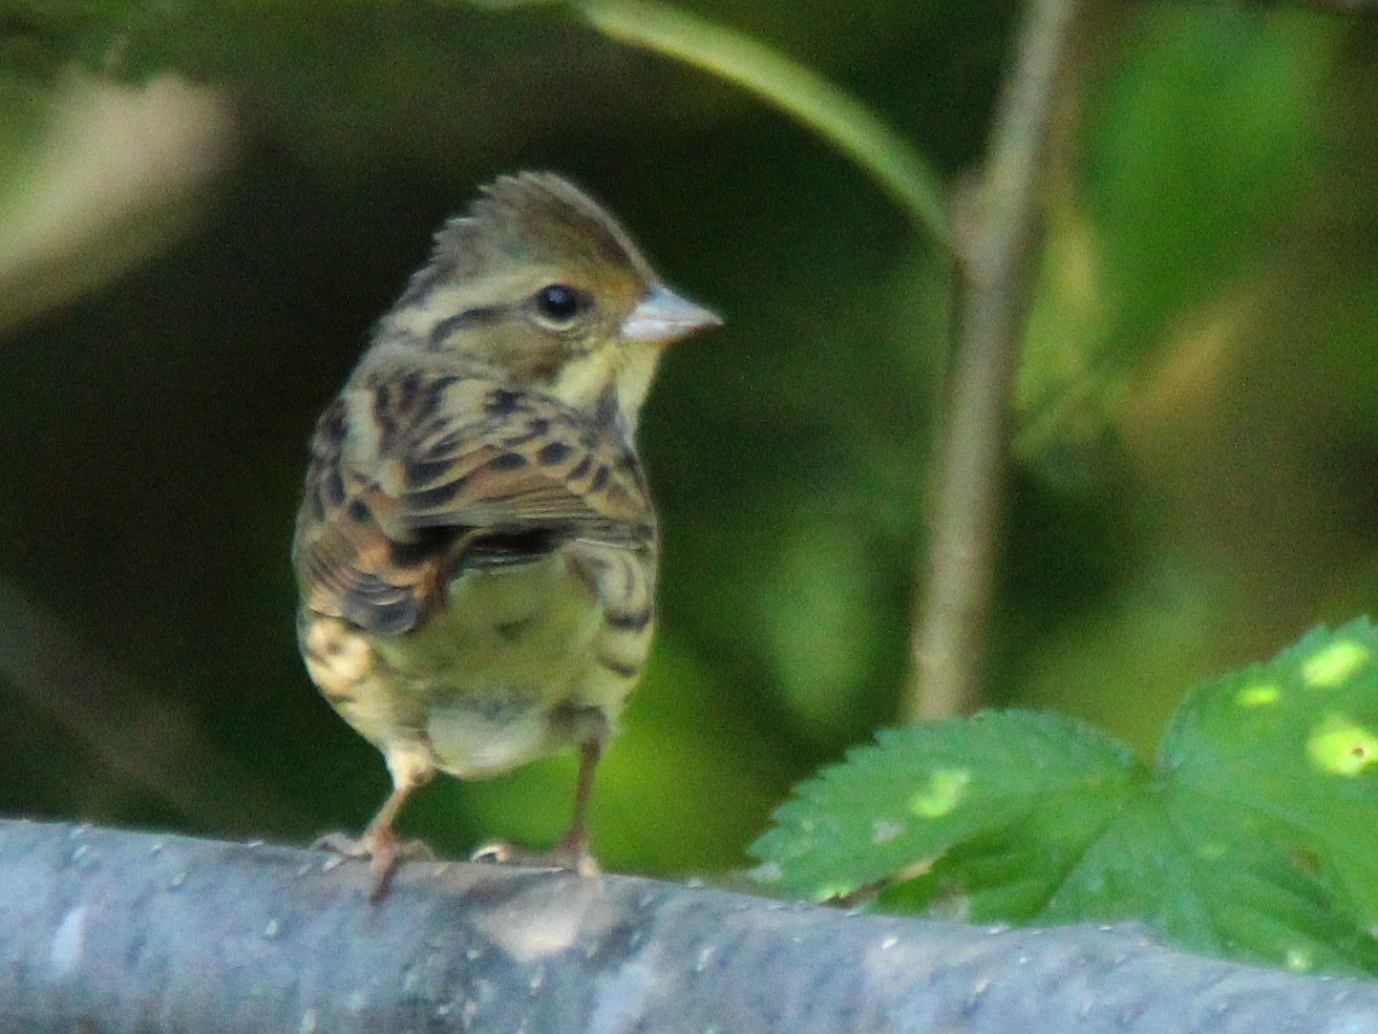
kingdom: Animalia
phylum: Chordata
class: Aves
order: Passeriformes
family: Emberizidae
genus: Emberiza
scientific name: Emberiza spodocephala
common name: Black-faced bunting
